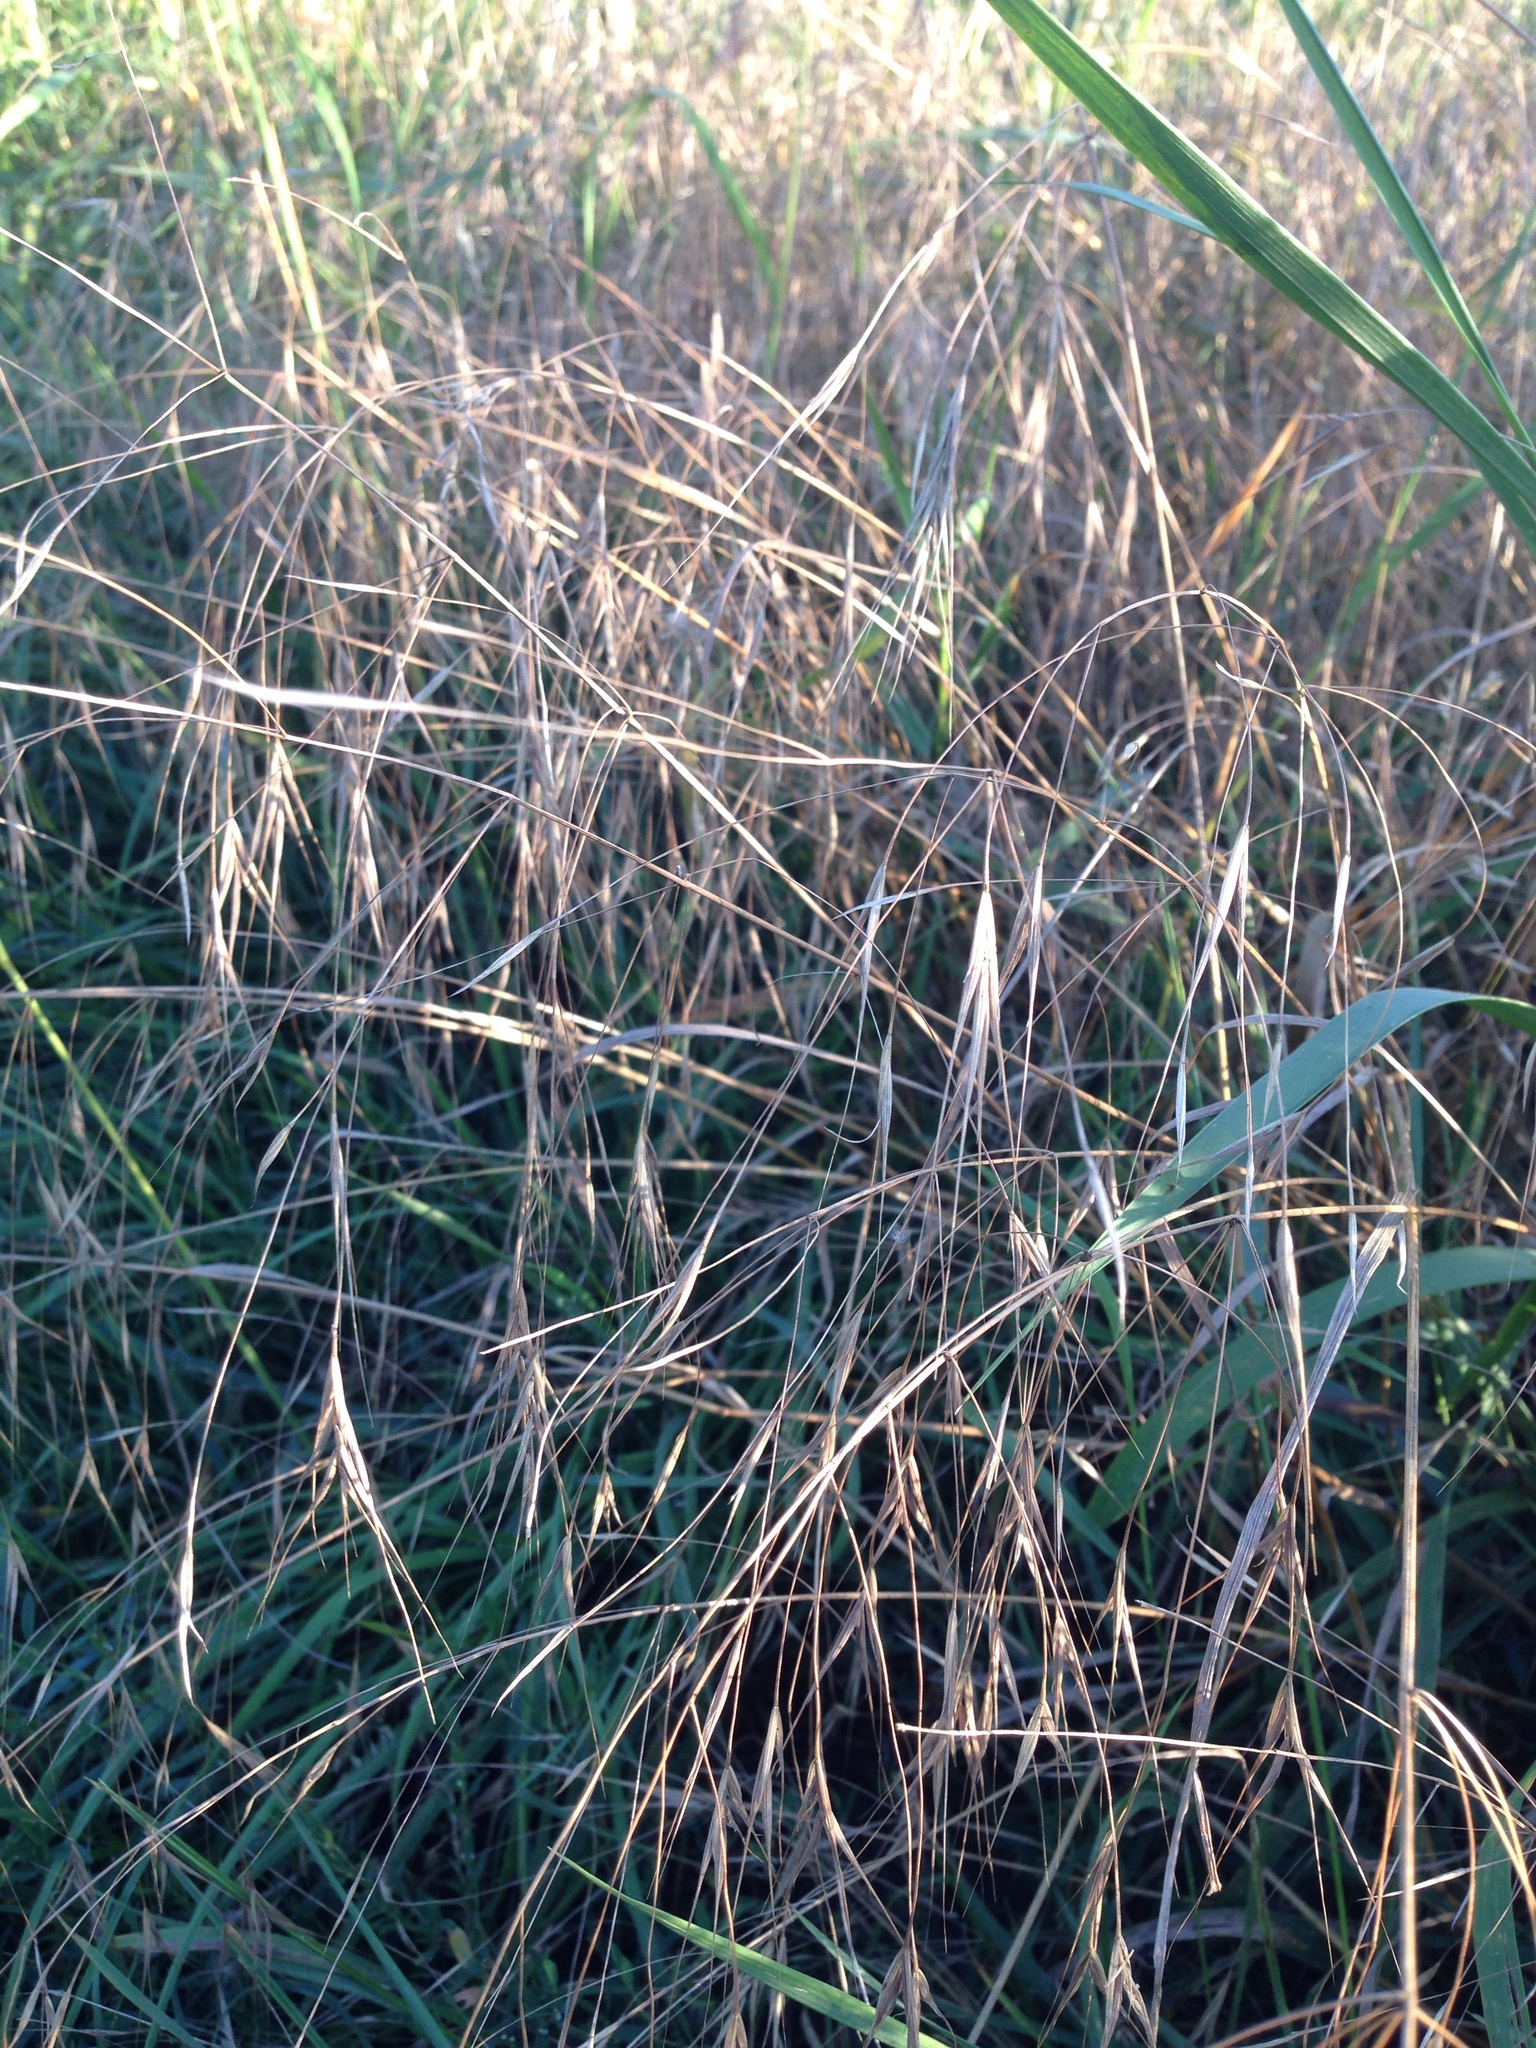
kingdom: Plantae
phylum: Tracheophyta
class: Liliopsida
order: Poales
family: Poaceae
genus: Bromus
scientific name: Bromus sterilis
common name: Poverty brome
